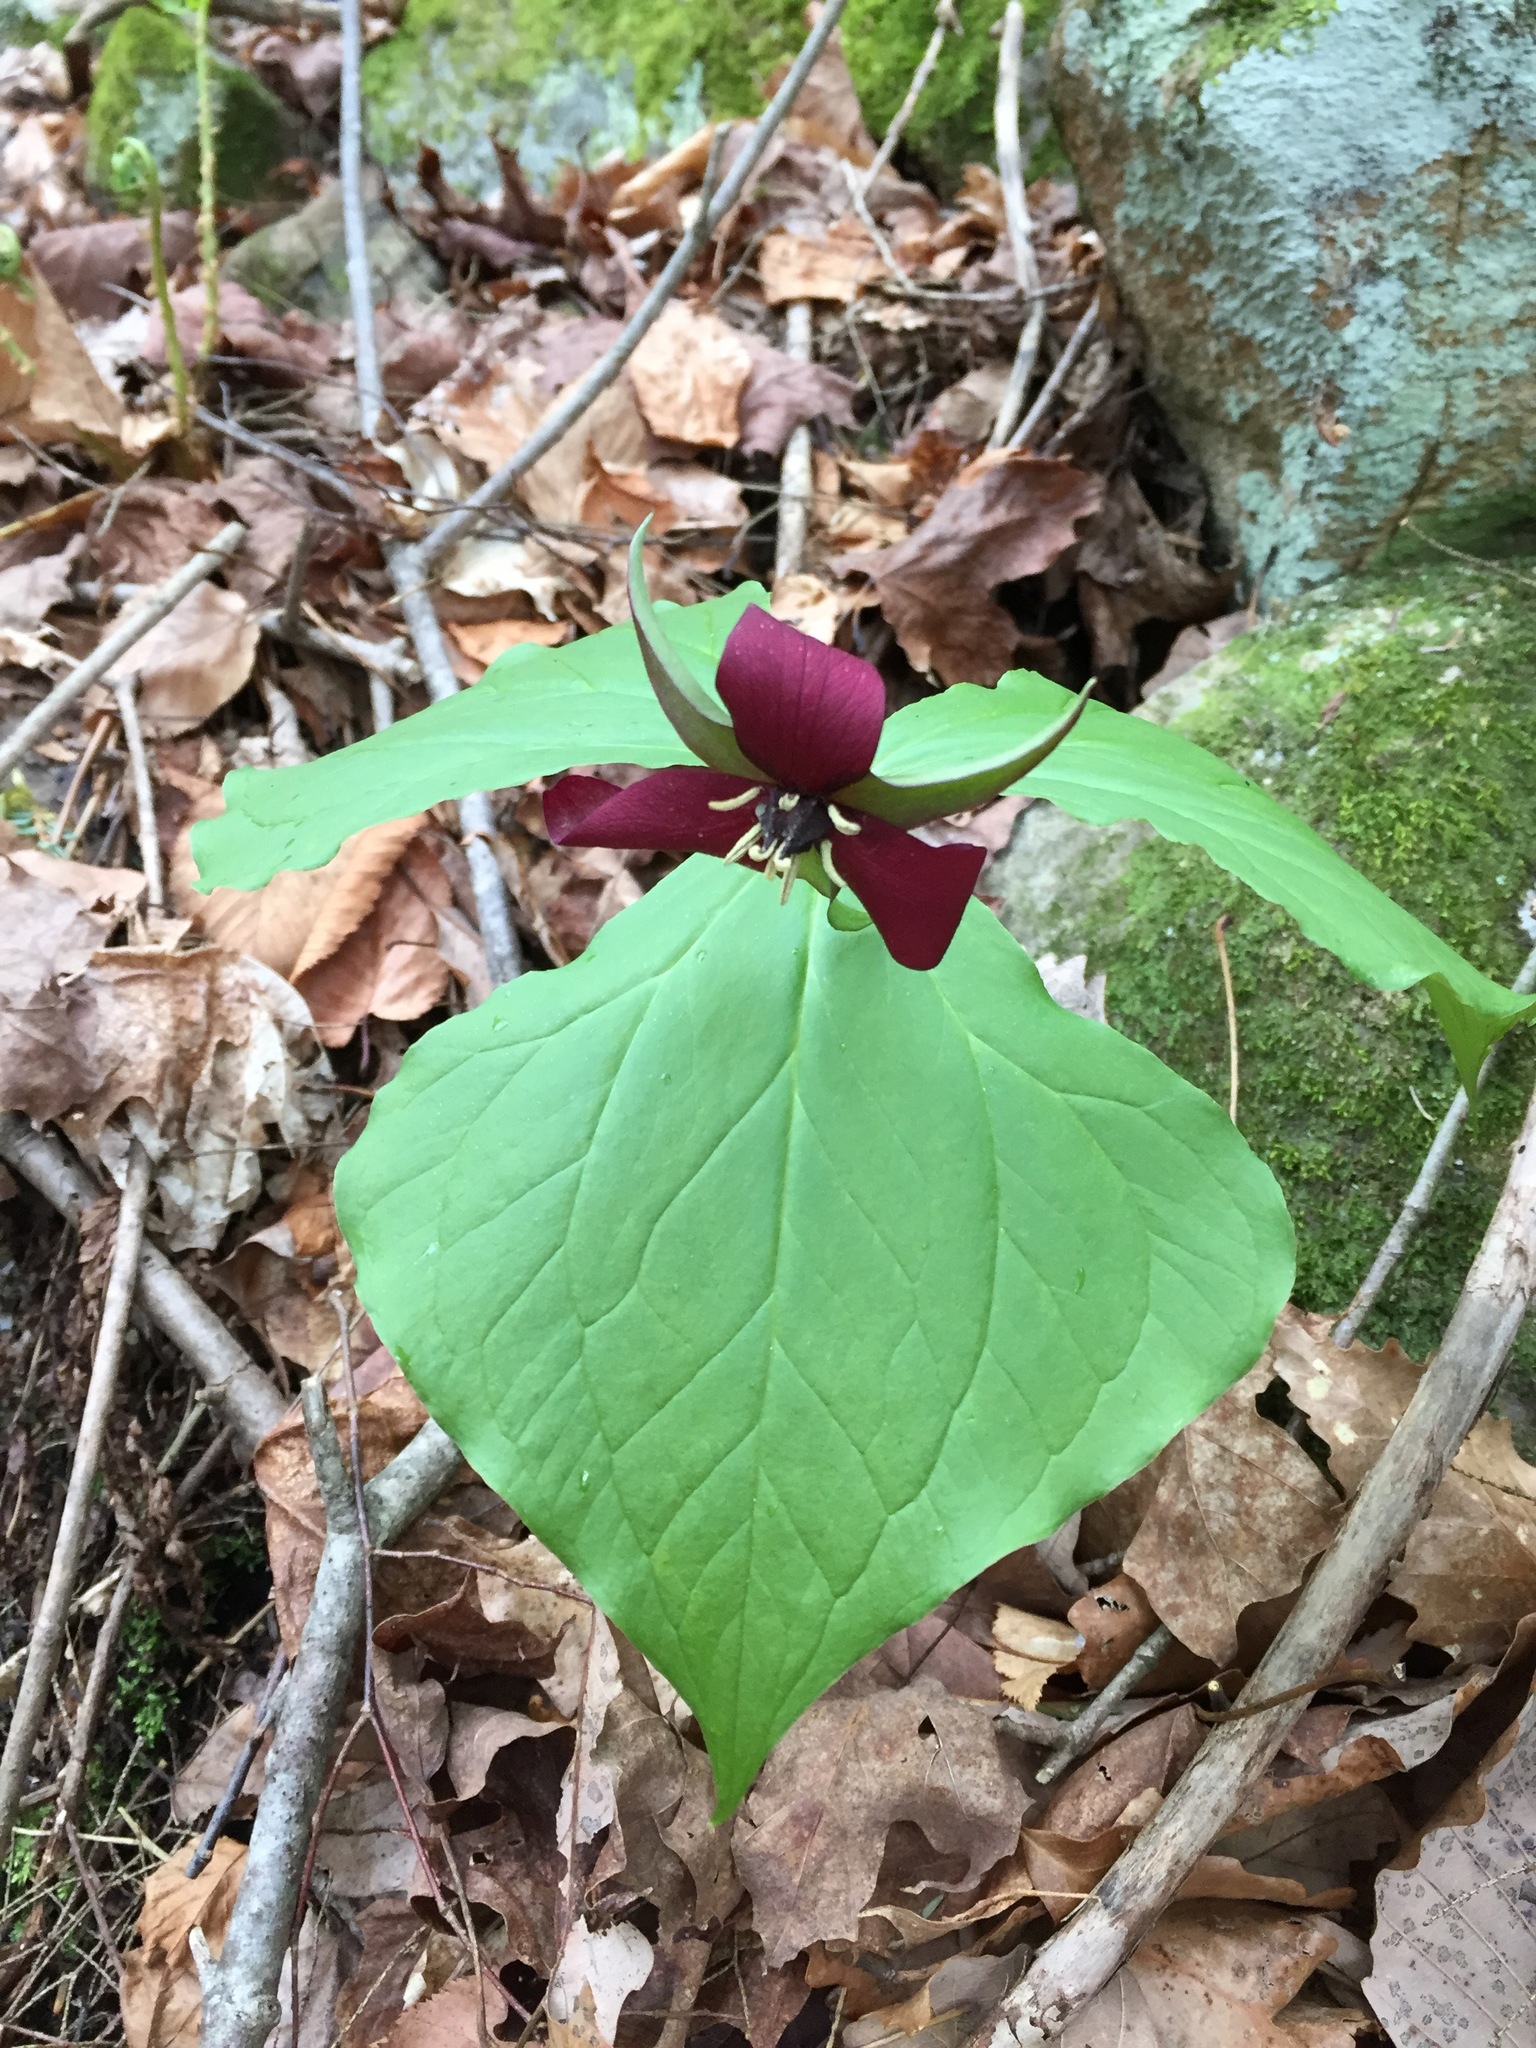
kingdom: Plantae
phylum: Tracheophyta
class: Liliopsida
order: Liliales
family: Melanthiaceae
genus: Trillium
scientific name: Trillium erectum
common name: Purple trillium
